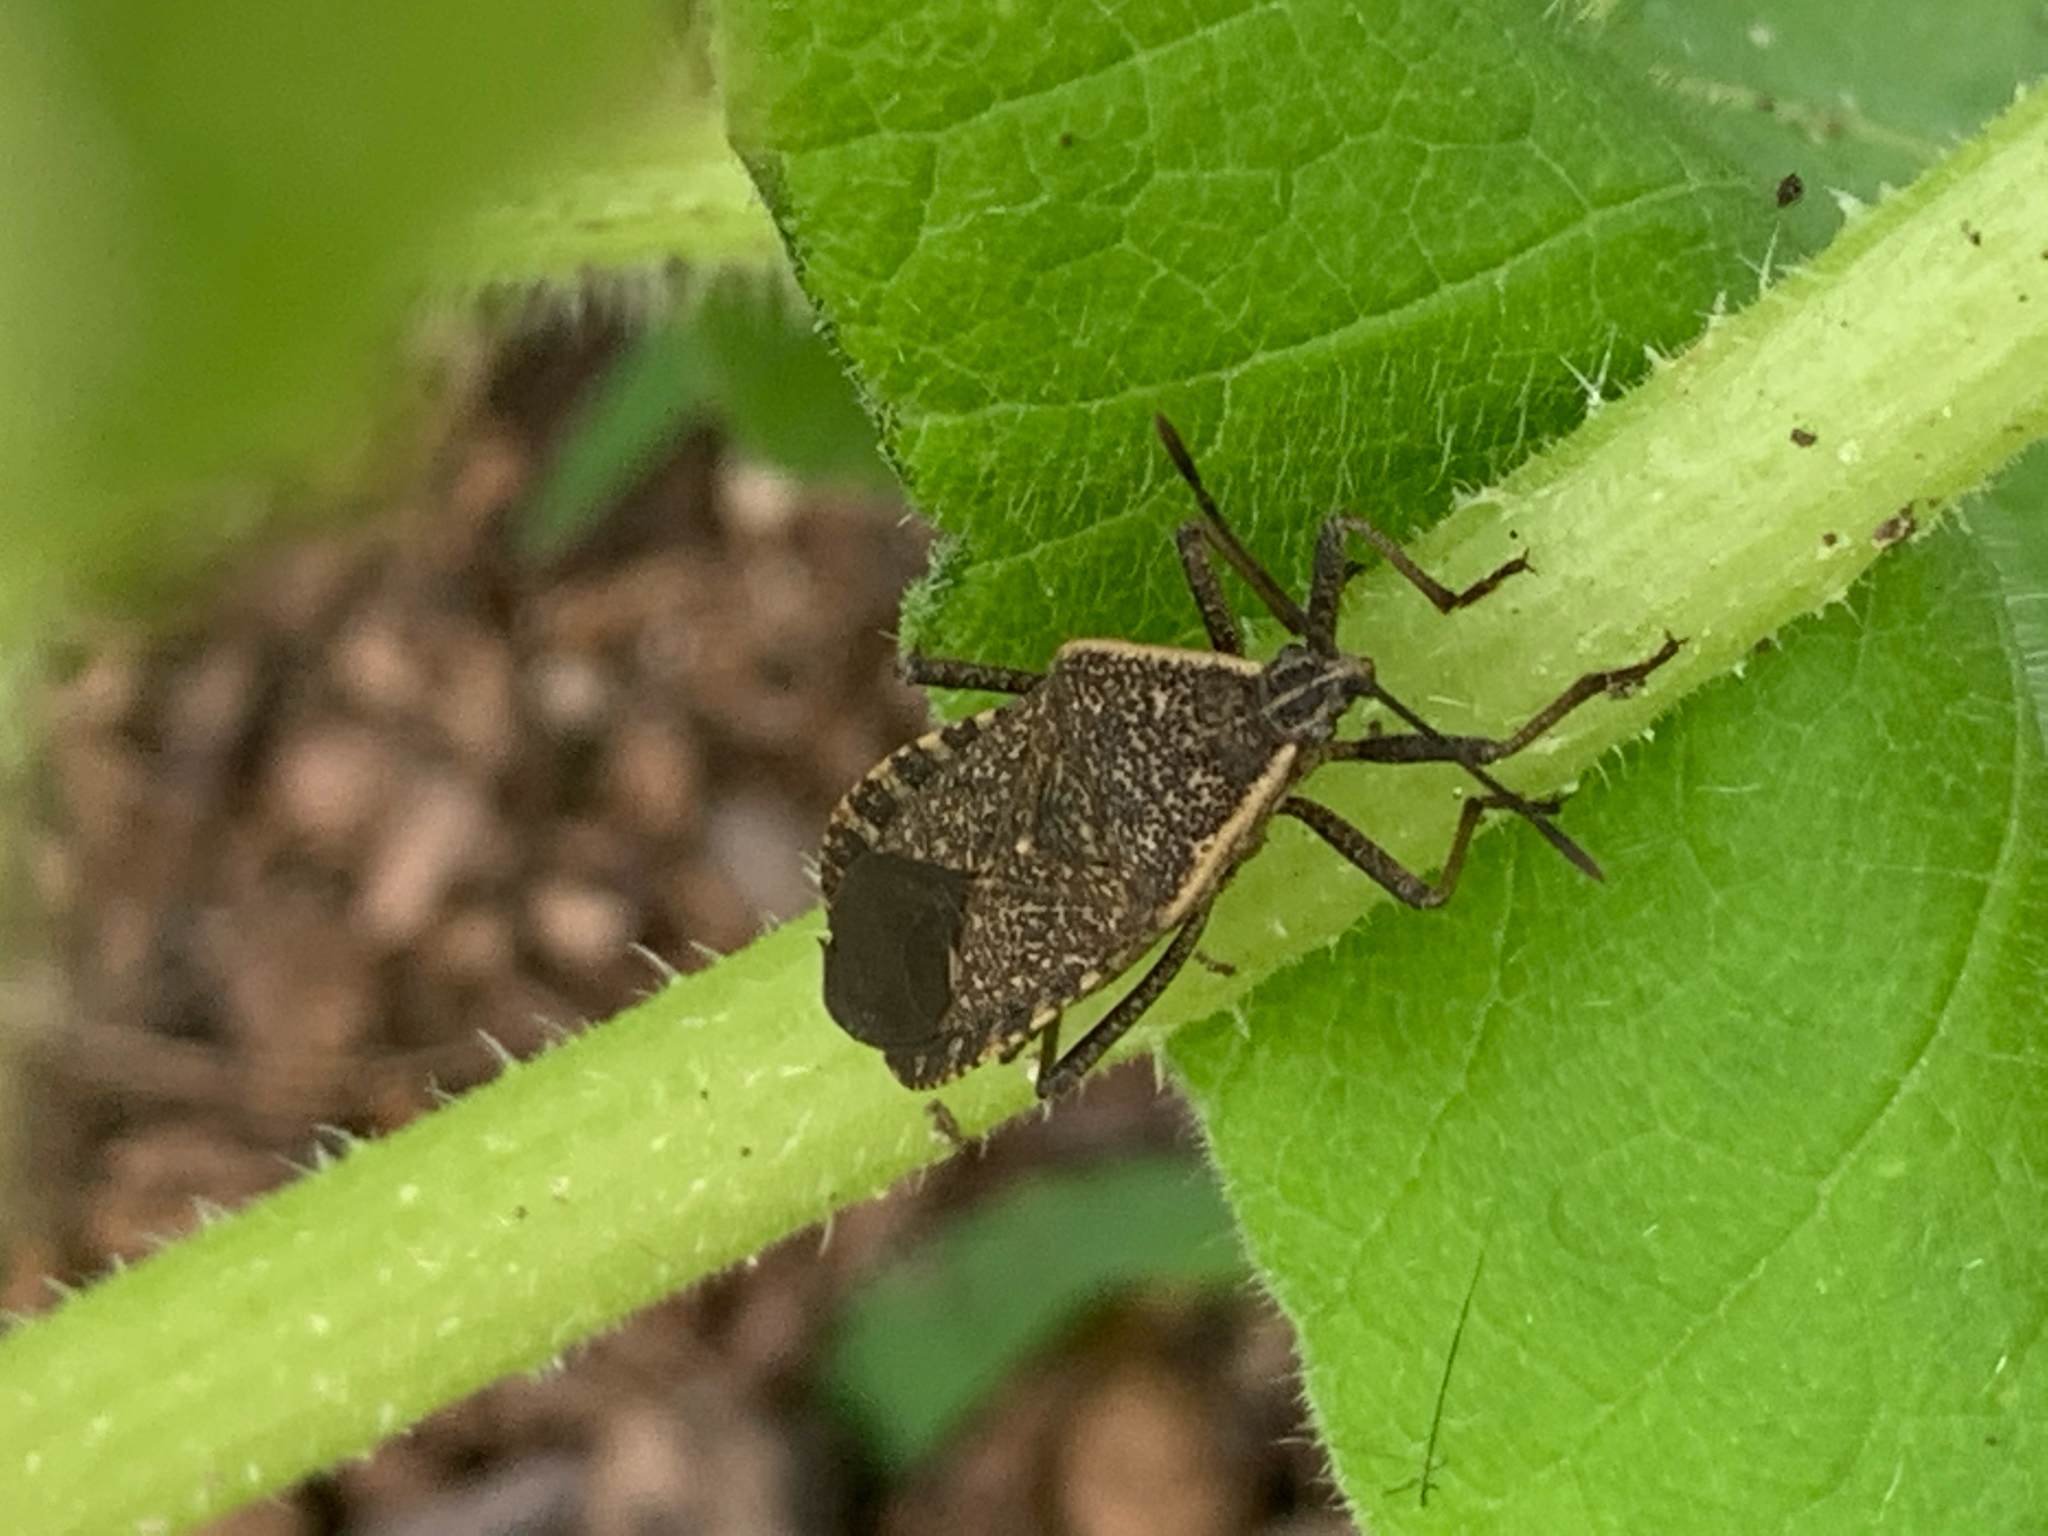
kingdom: Animalia
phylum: Arthropoda
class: Insecta
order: Hemiptera
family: Coreidae
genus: Anasa
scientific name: Anasa tristis
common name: Squash bug
